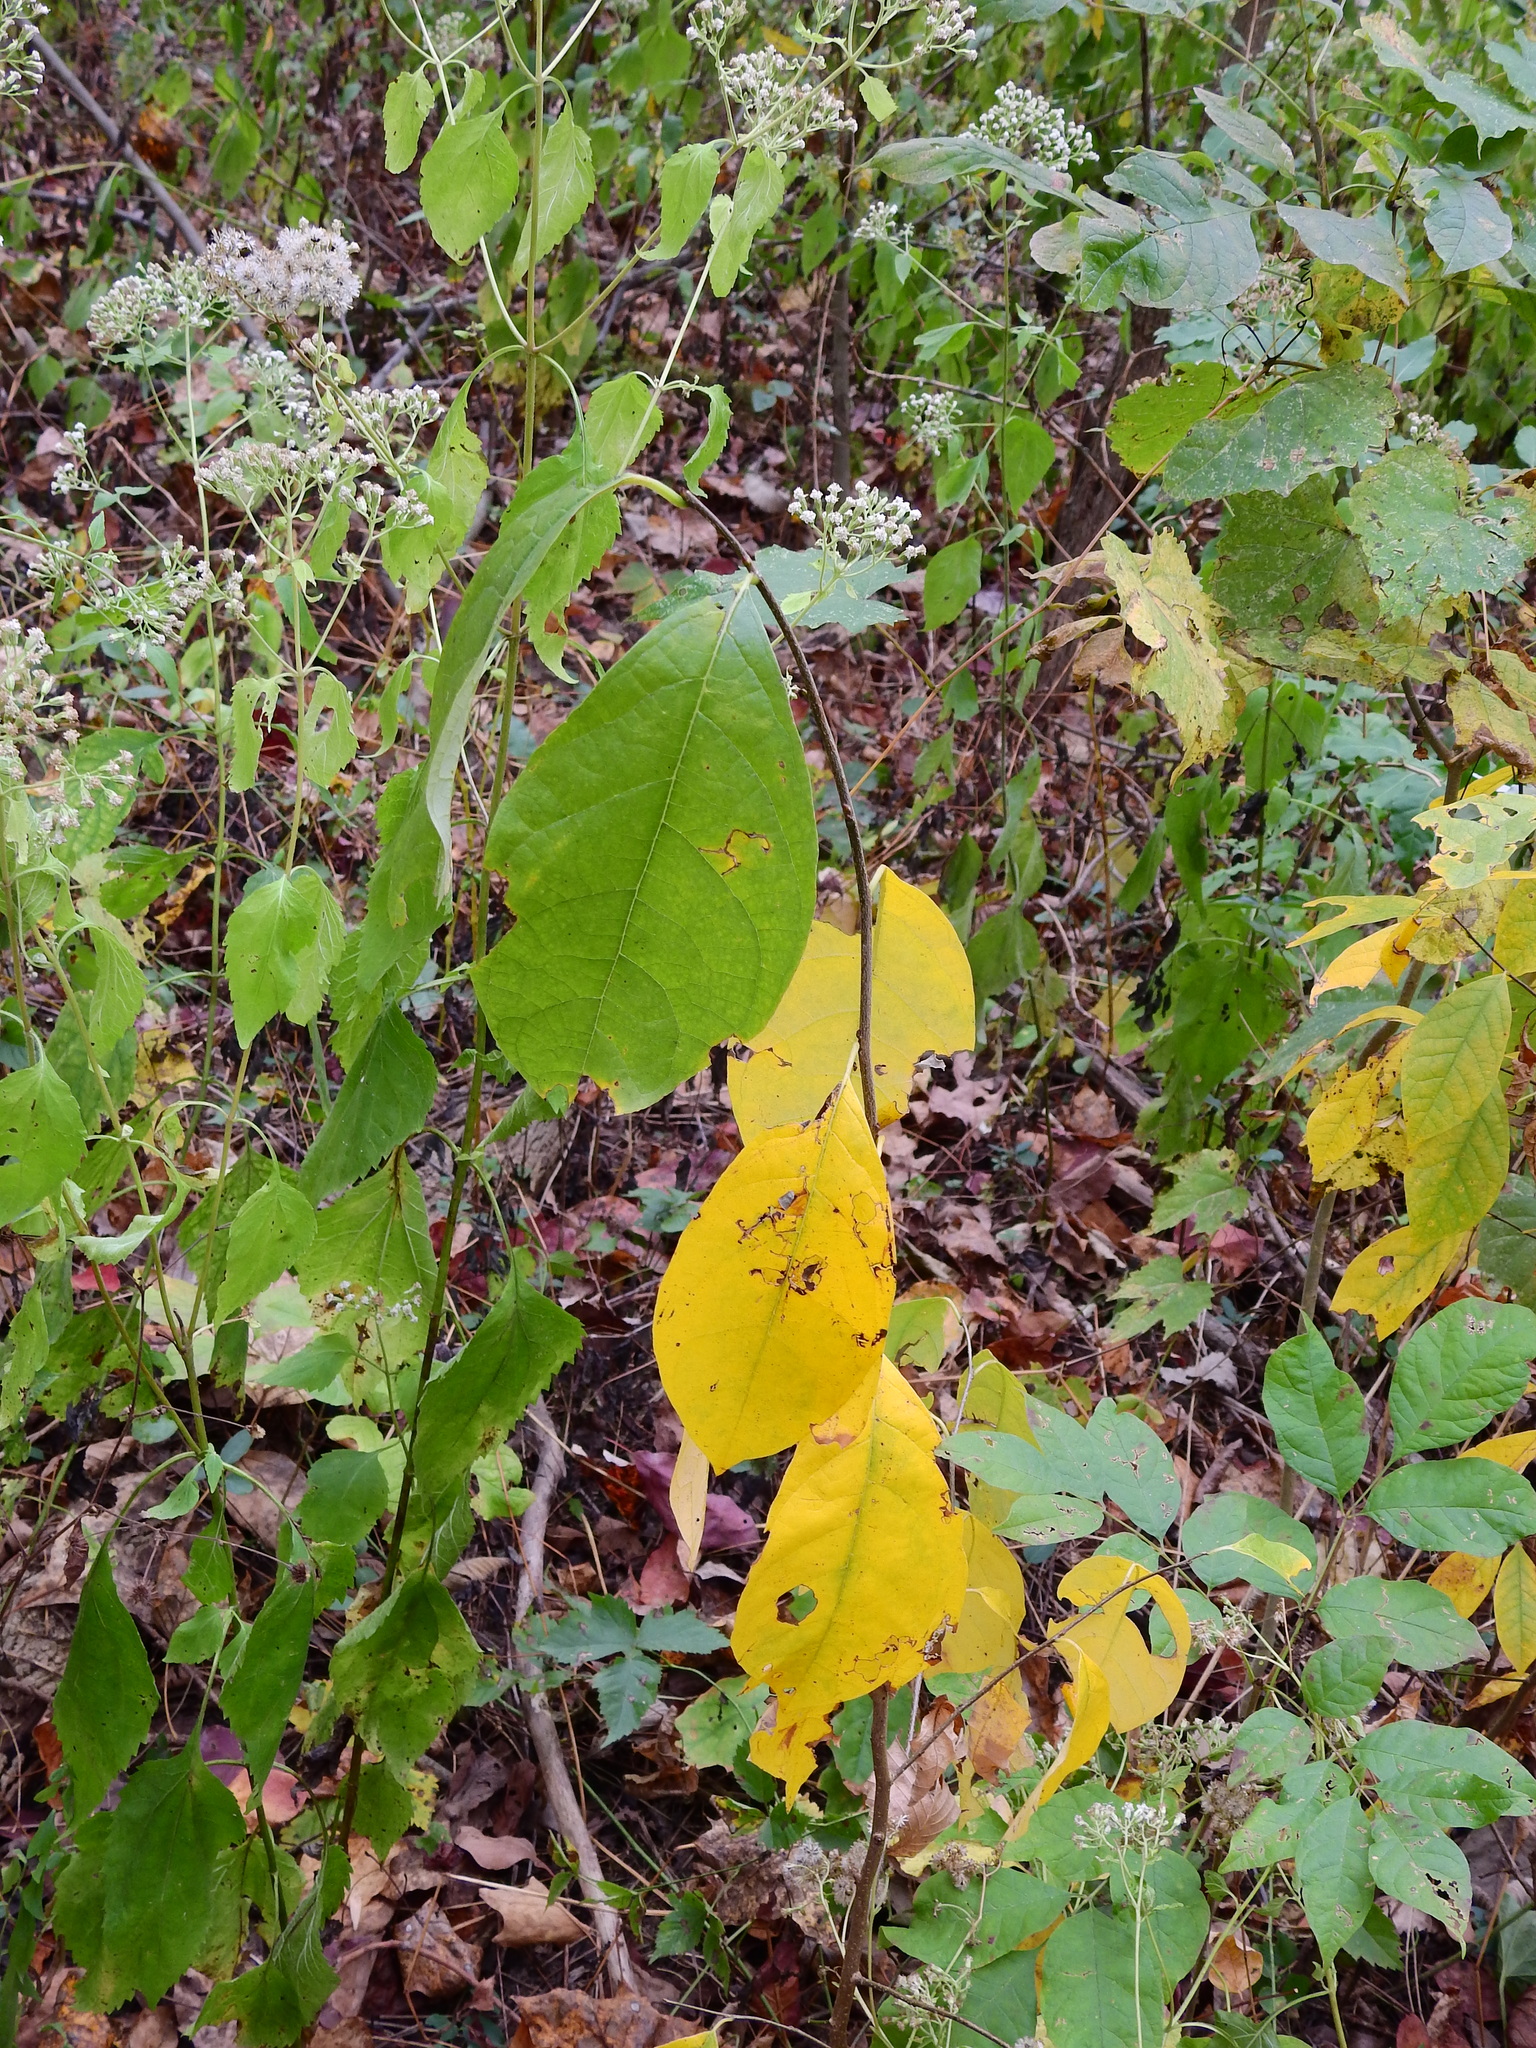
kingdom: Plantae
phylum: Tracheophyta
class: Magnoliopsida
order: Laurales
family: Lauraceae
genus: Lindera
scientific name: Lindera benzoin
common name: Spicebush
